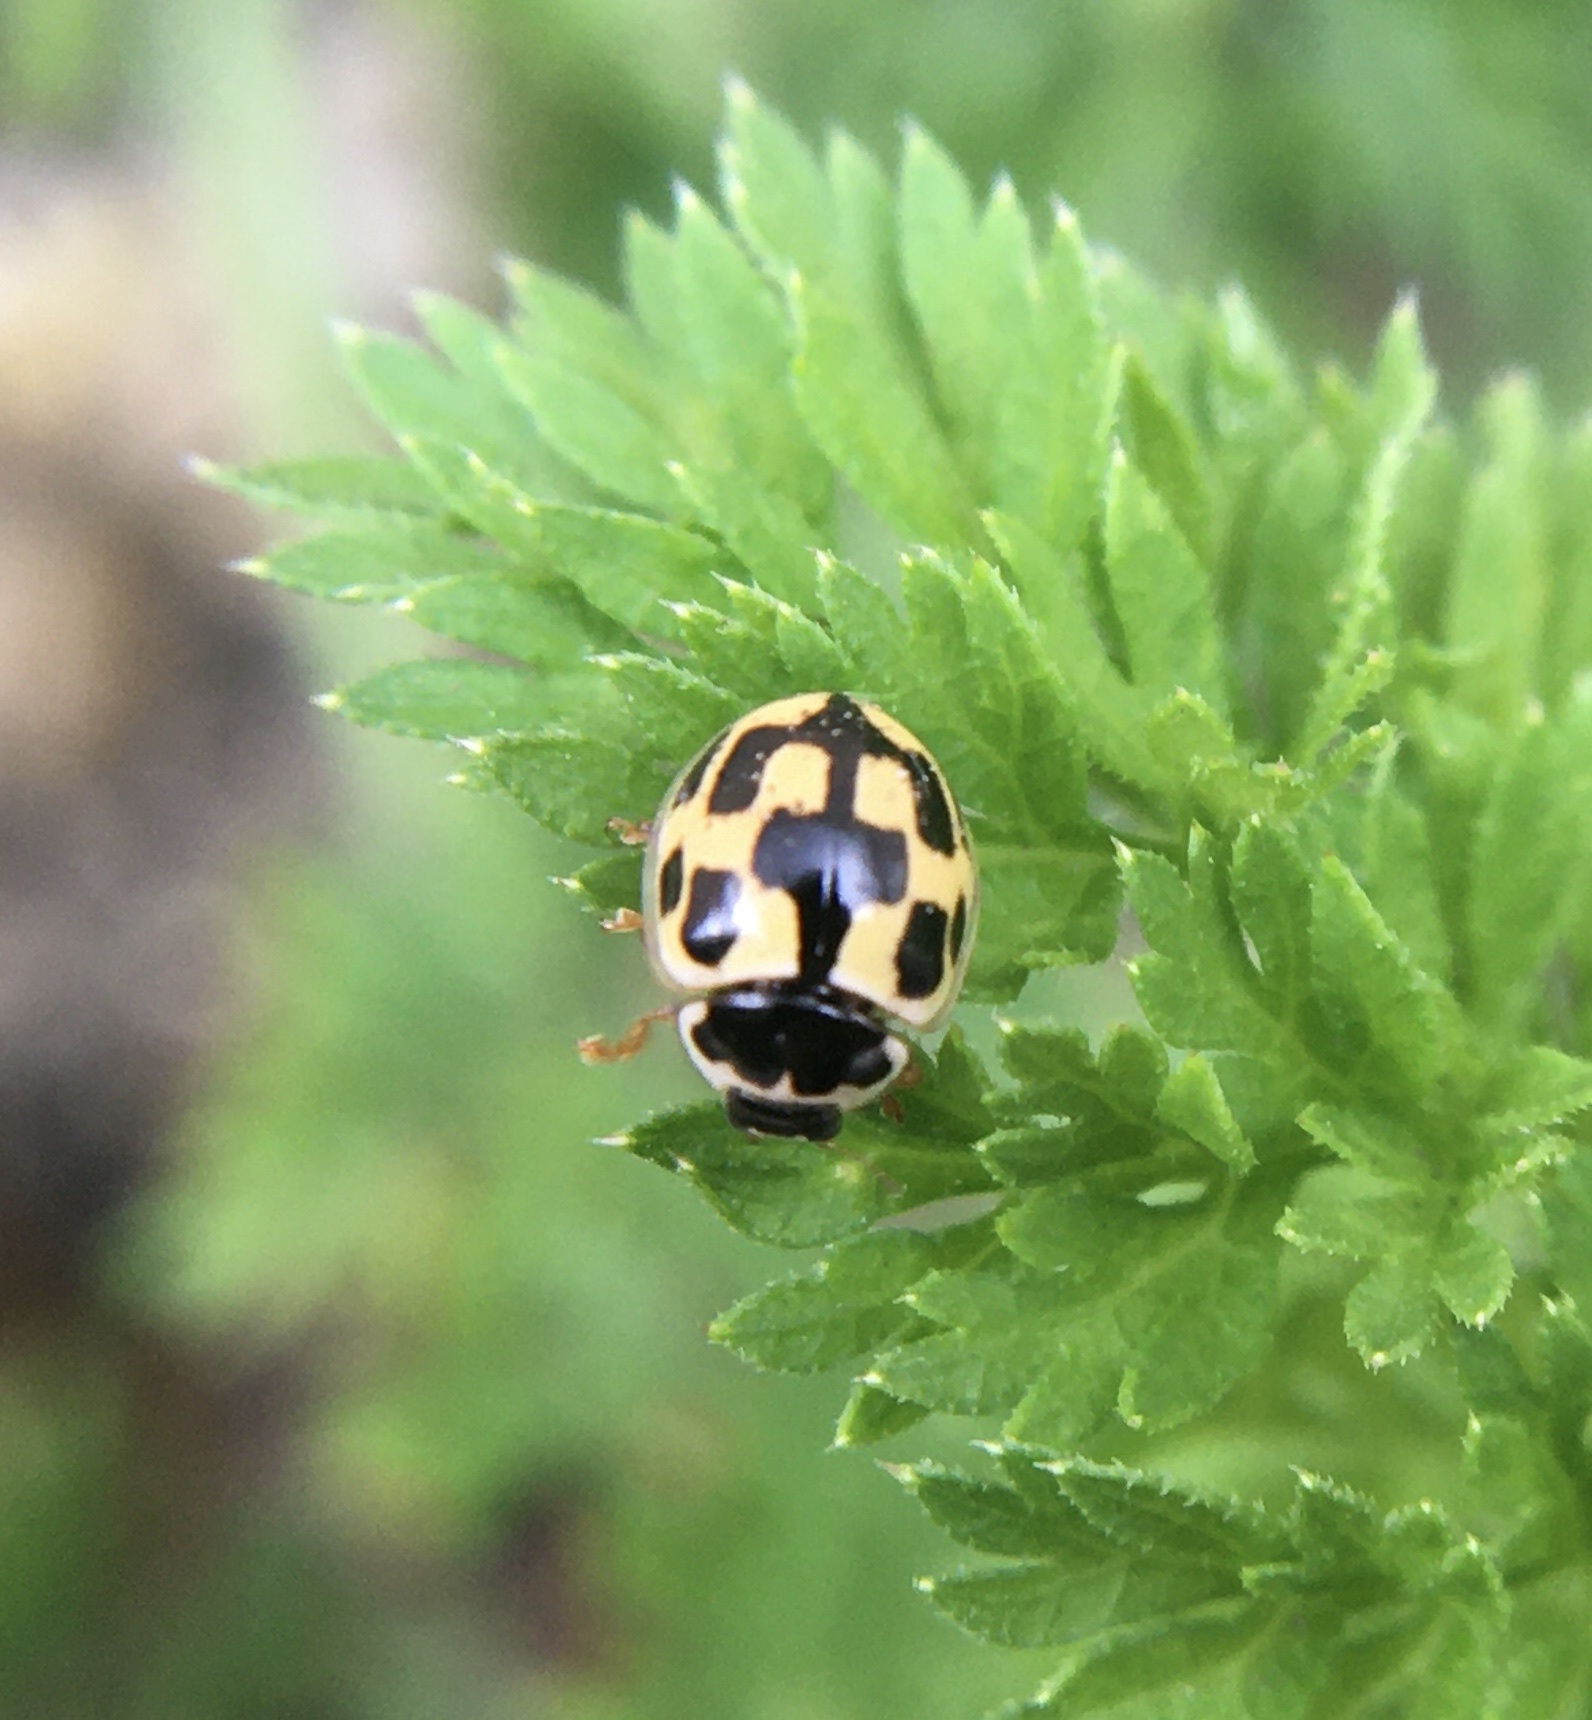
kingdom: Animalia
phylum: Arthropoda
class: Insecta
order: Coleoptera
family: Coccinellidae
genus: Propylaea
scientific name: Propylaea quatuordecimpunctata
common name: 14-spotted ladybird beetle
